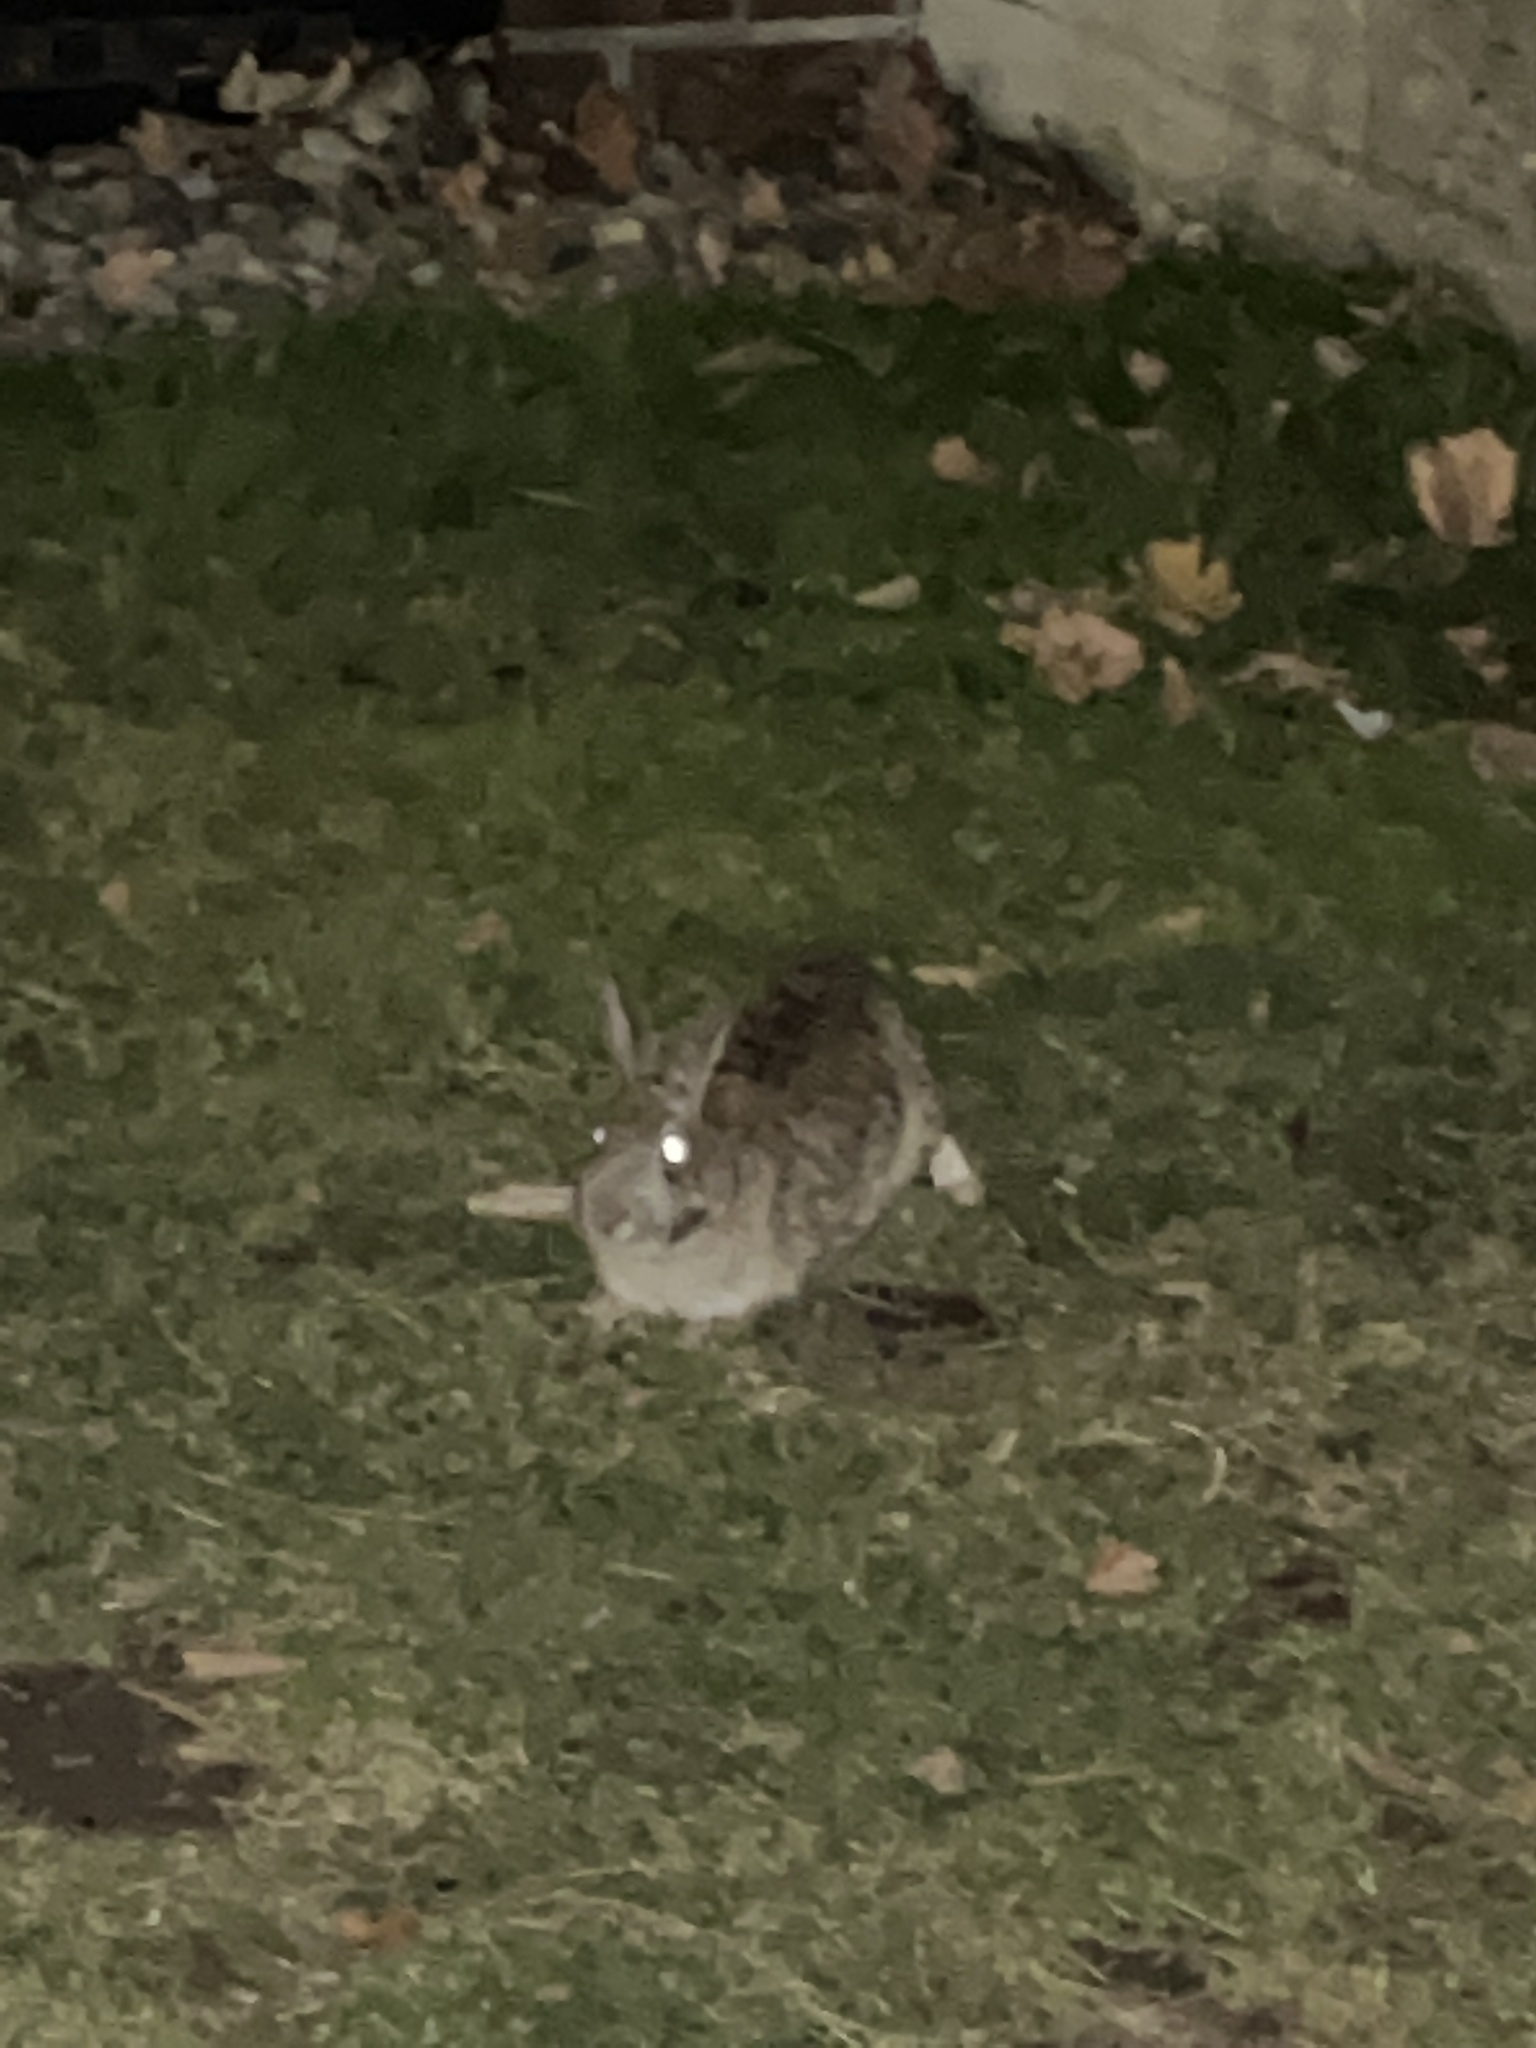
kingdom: Animalia
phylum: Chordata
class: Mammalia
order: Lagomorpha
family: Leporidae
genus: Sylvilagus
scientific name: Sylvilagus floridanus
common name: Eastern cottontail
